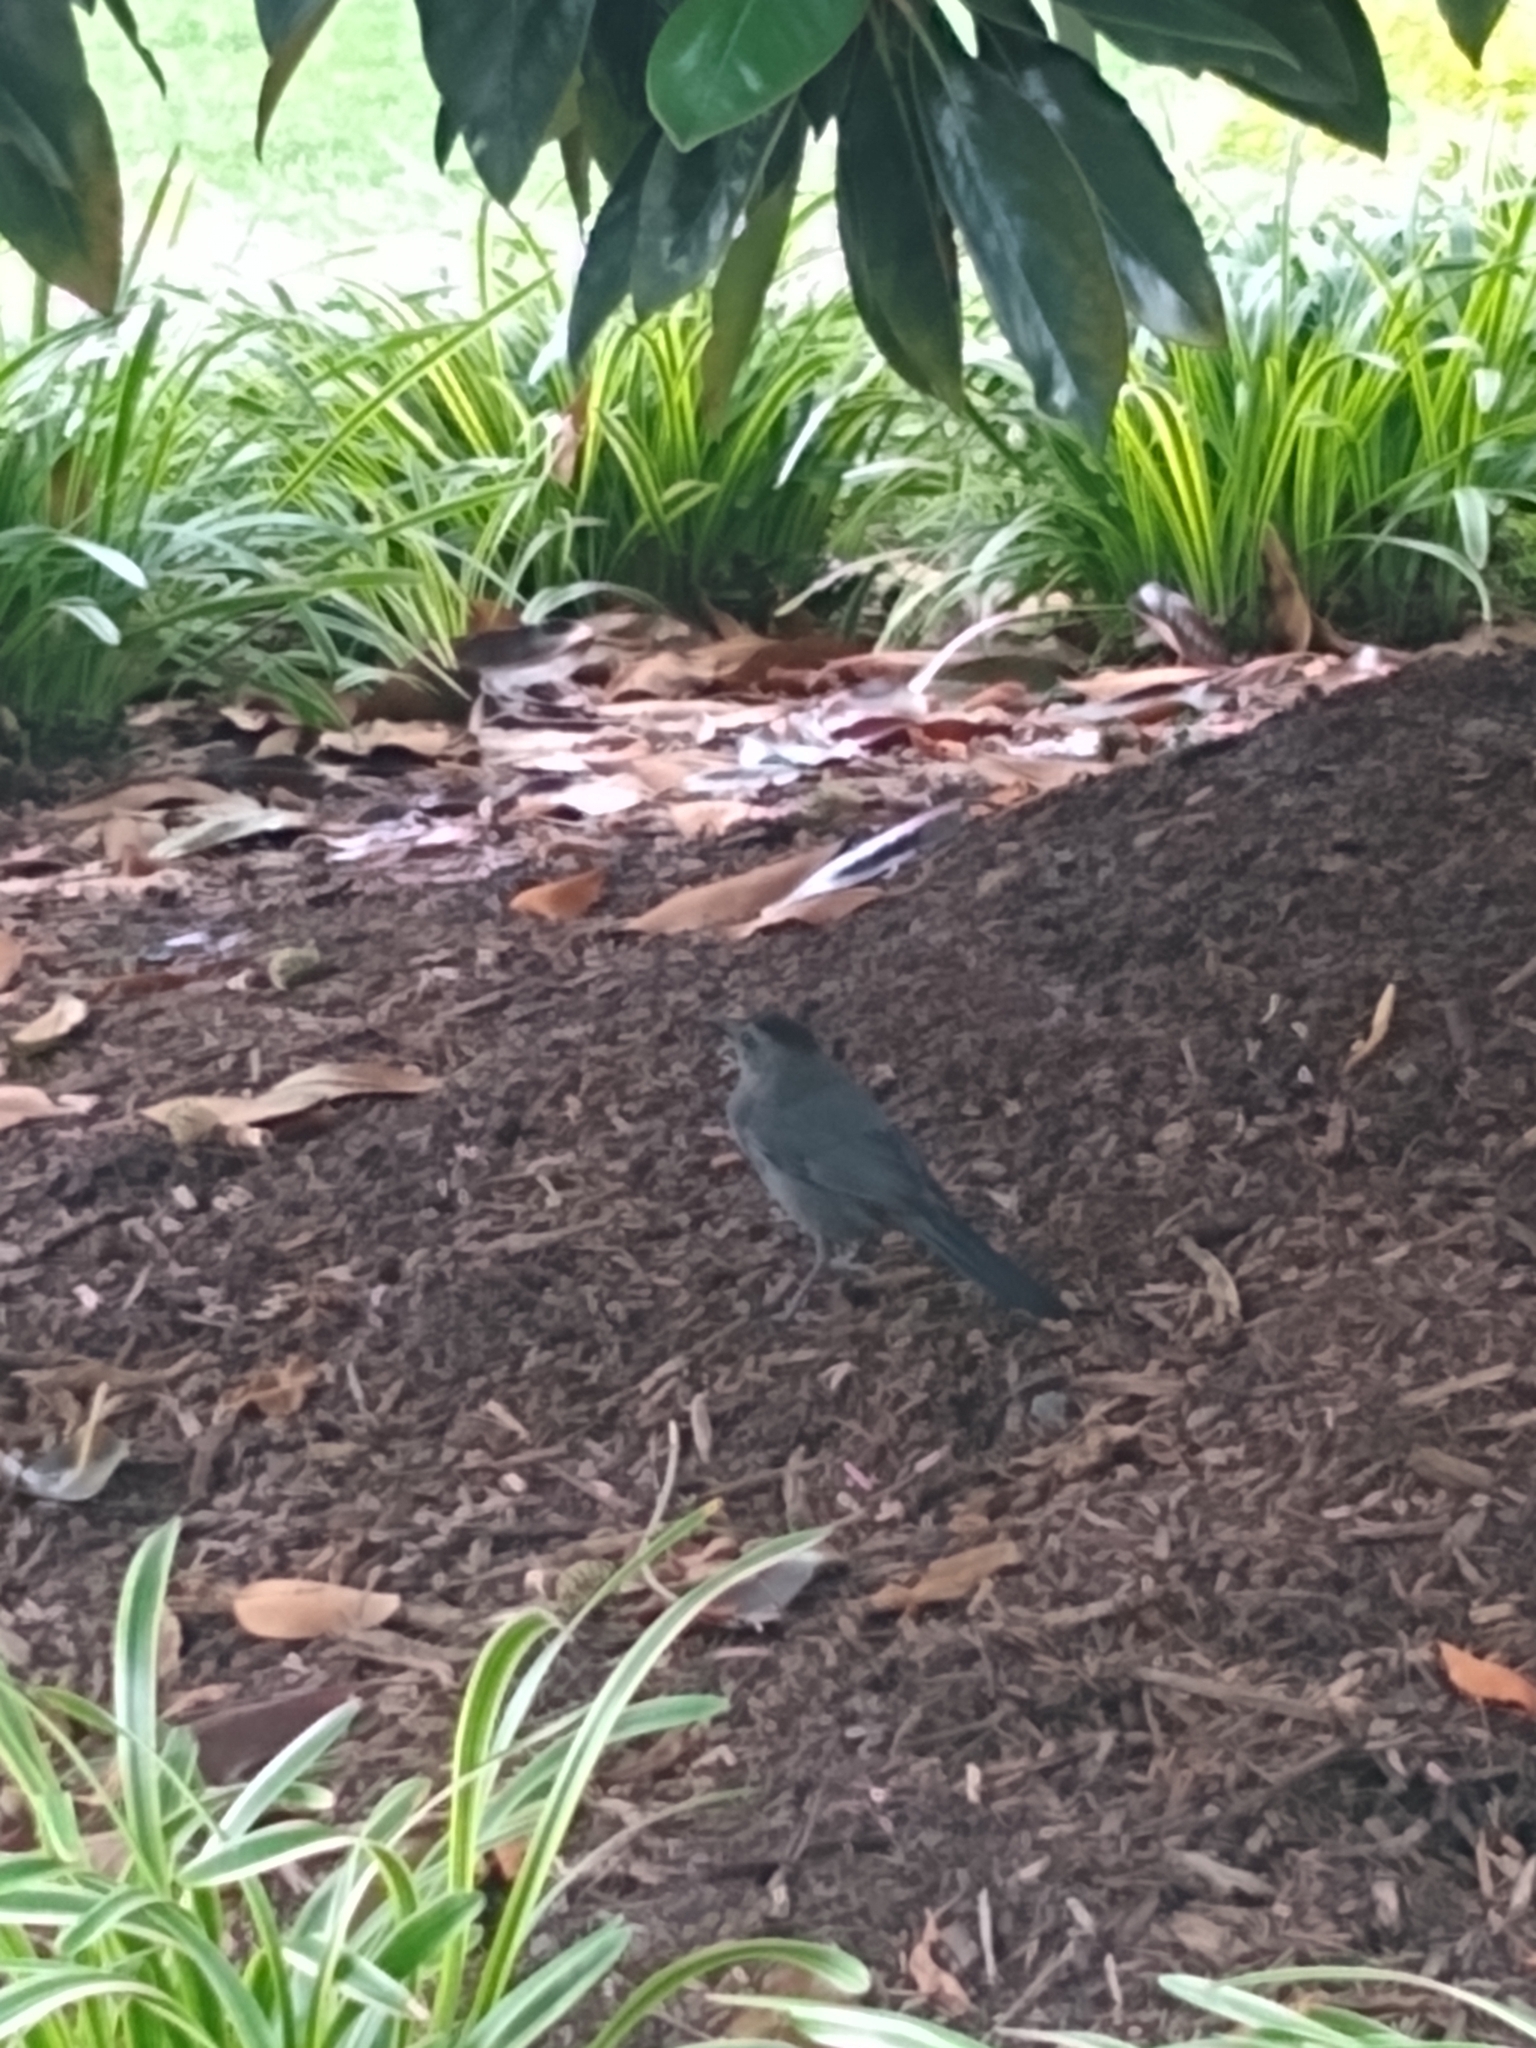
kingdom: Animalia
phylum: Chordata
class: Aves
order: Passeriformes
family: Mimidae
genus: Dumetella
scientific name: Dumetella carolinensis
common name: Gray catbird
